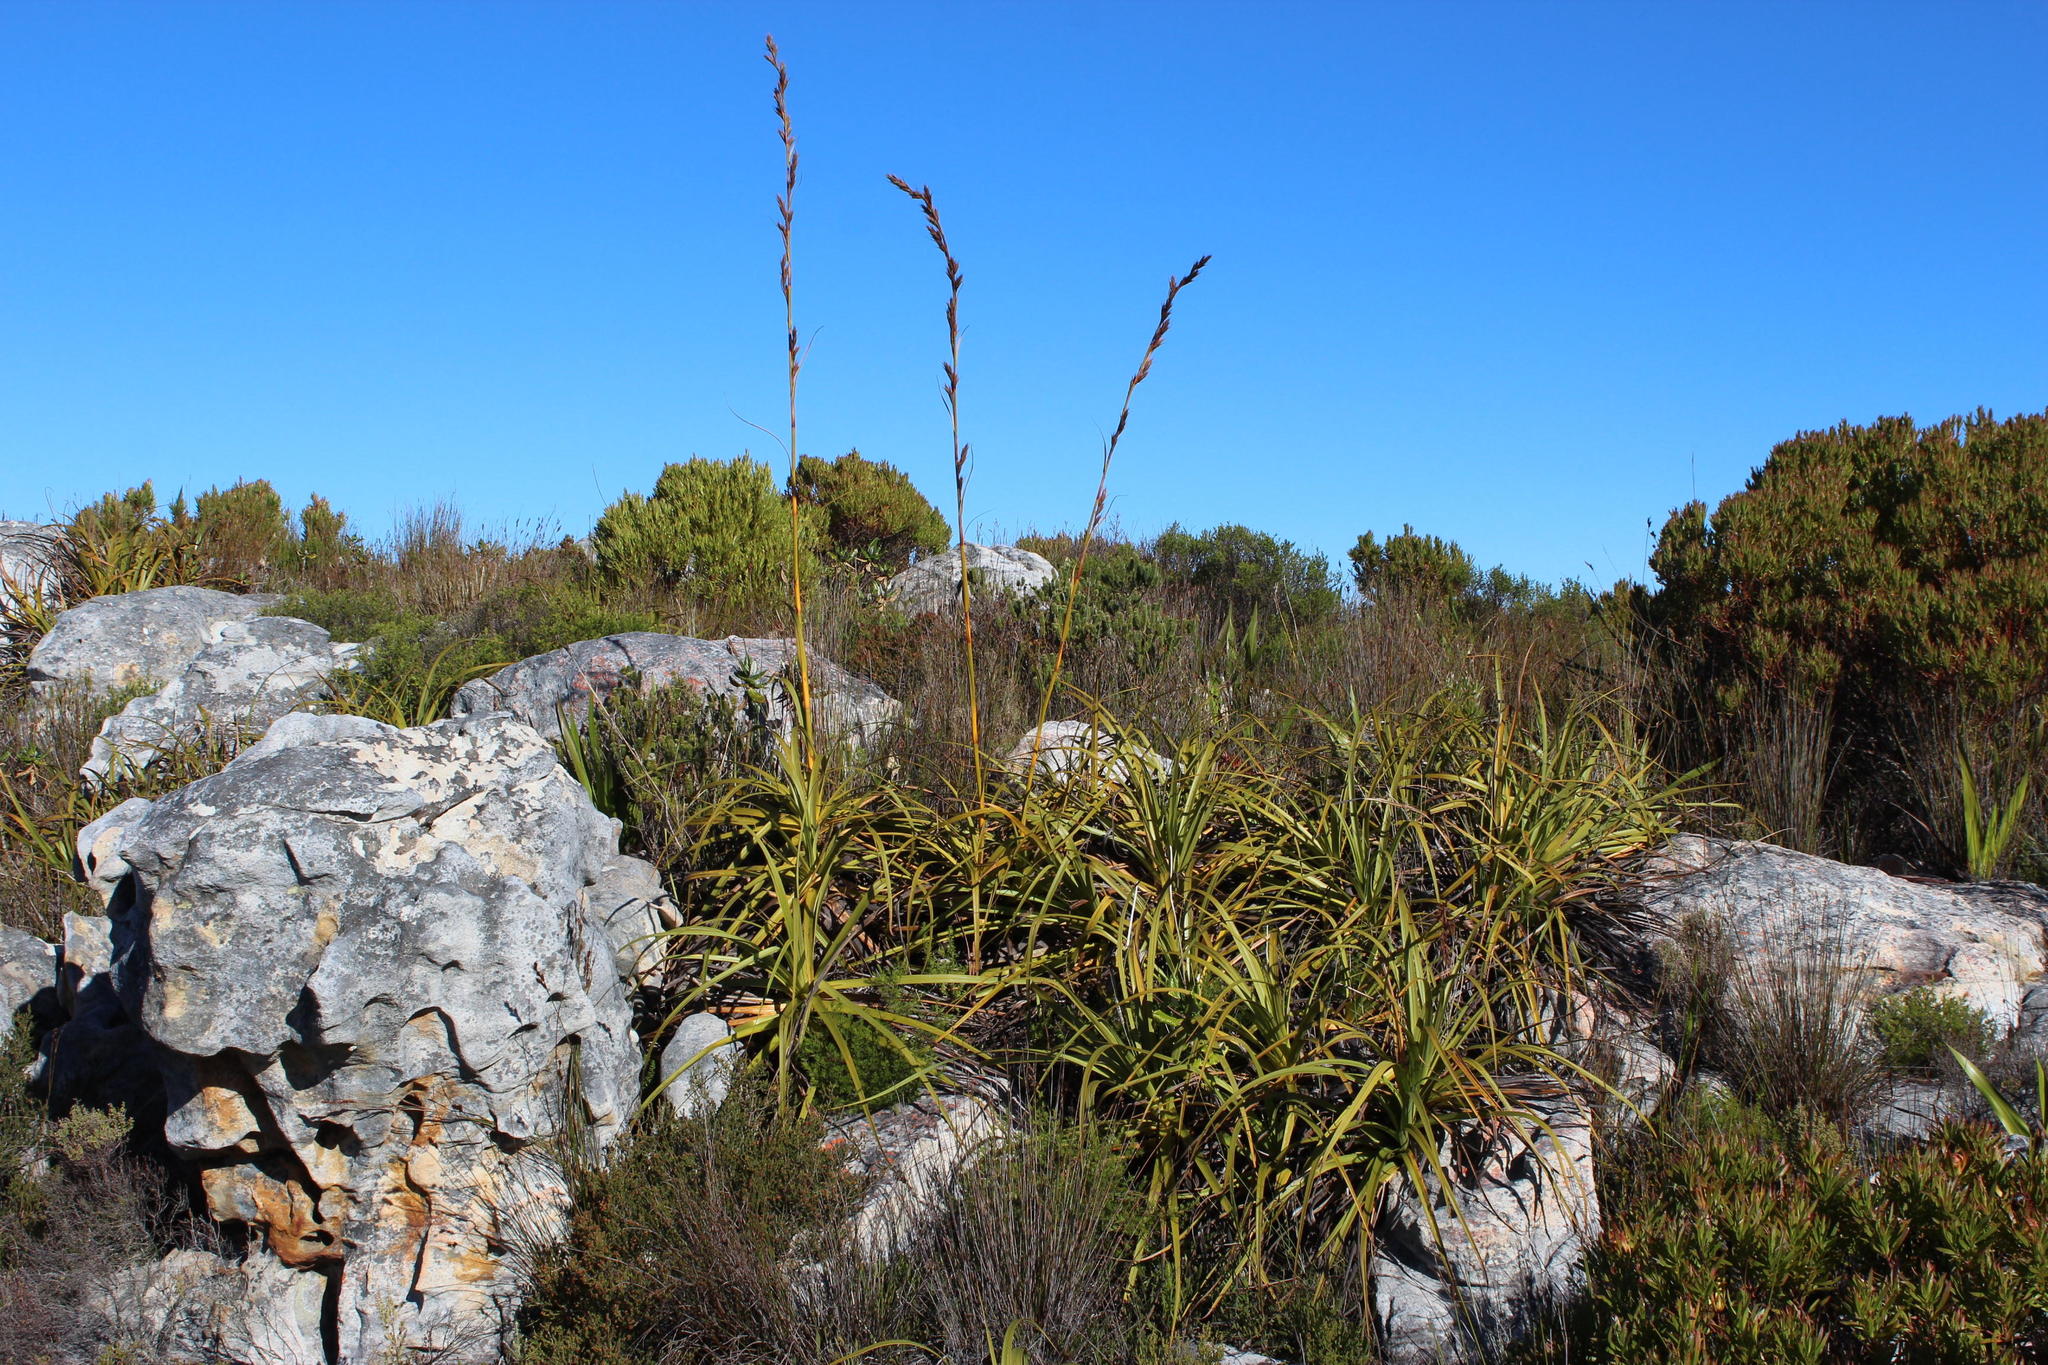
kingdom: Plantae
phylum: Tracheophyta
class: Liliopsida
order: Poales
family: Cyperaceae
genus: Tetraria
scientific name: Tetraria thermalis
